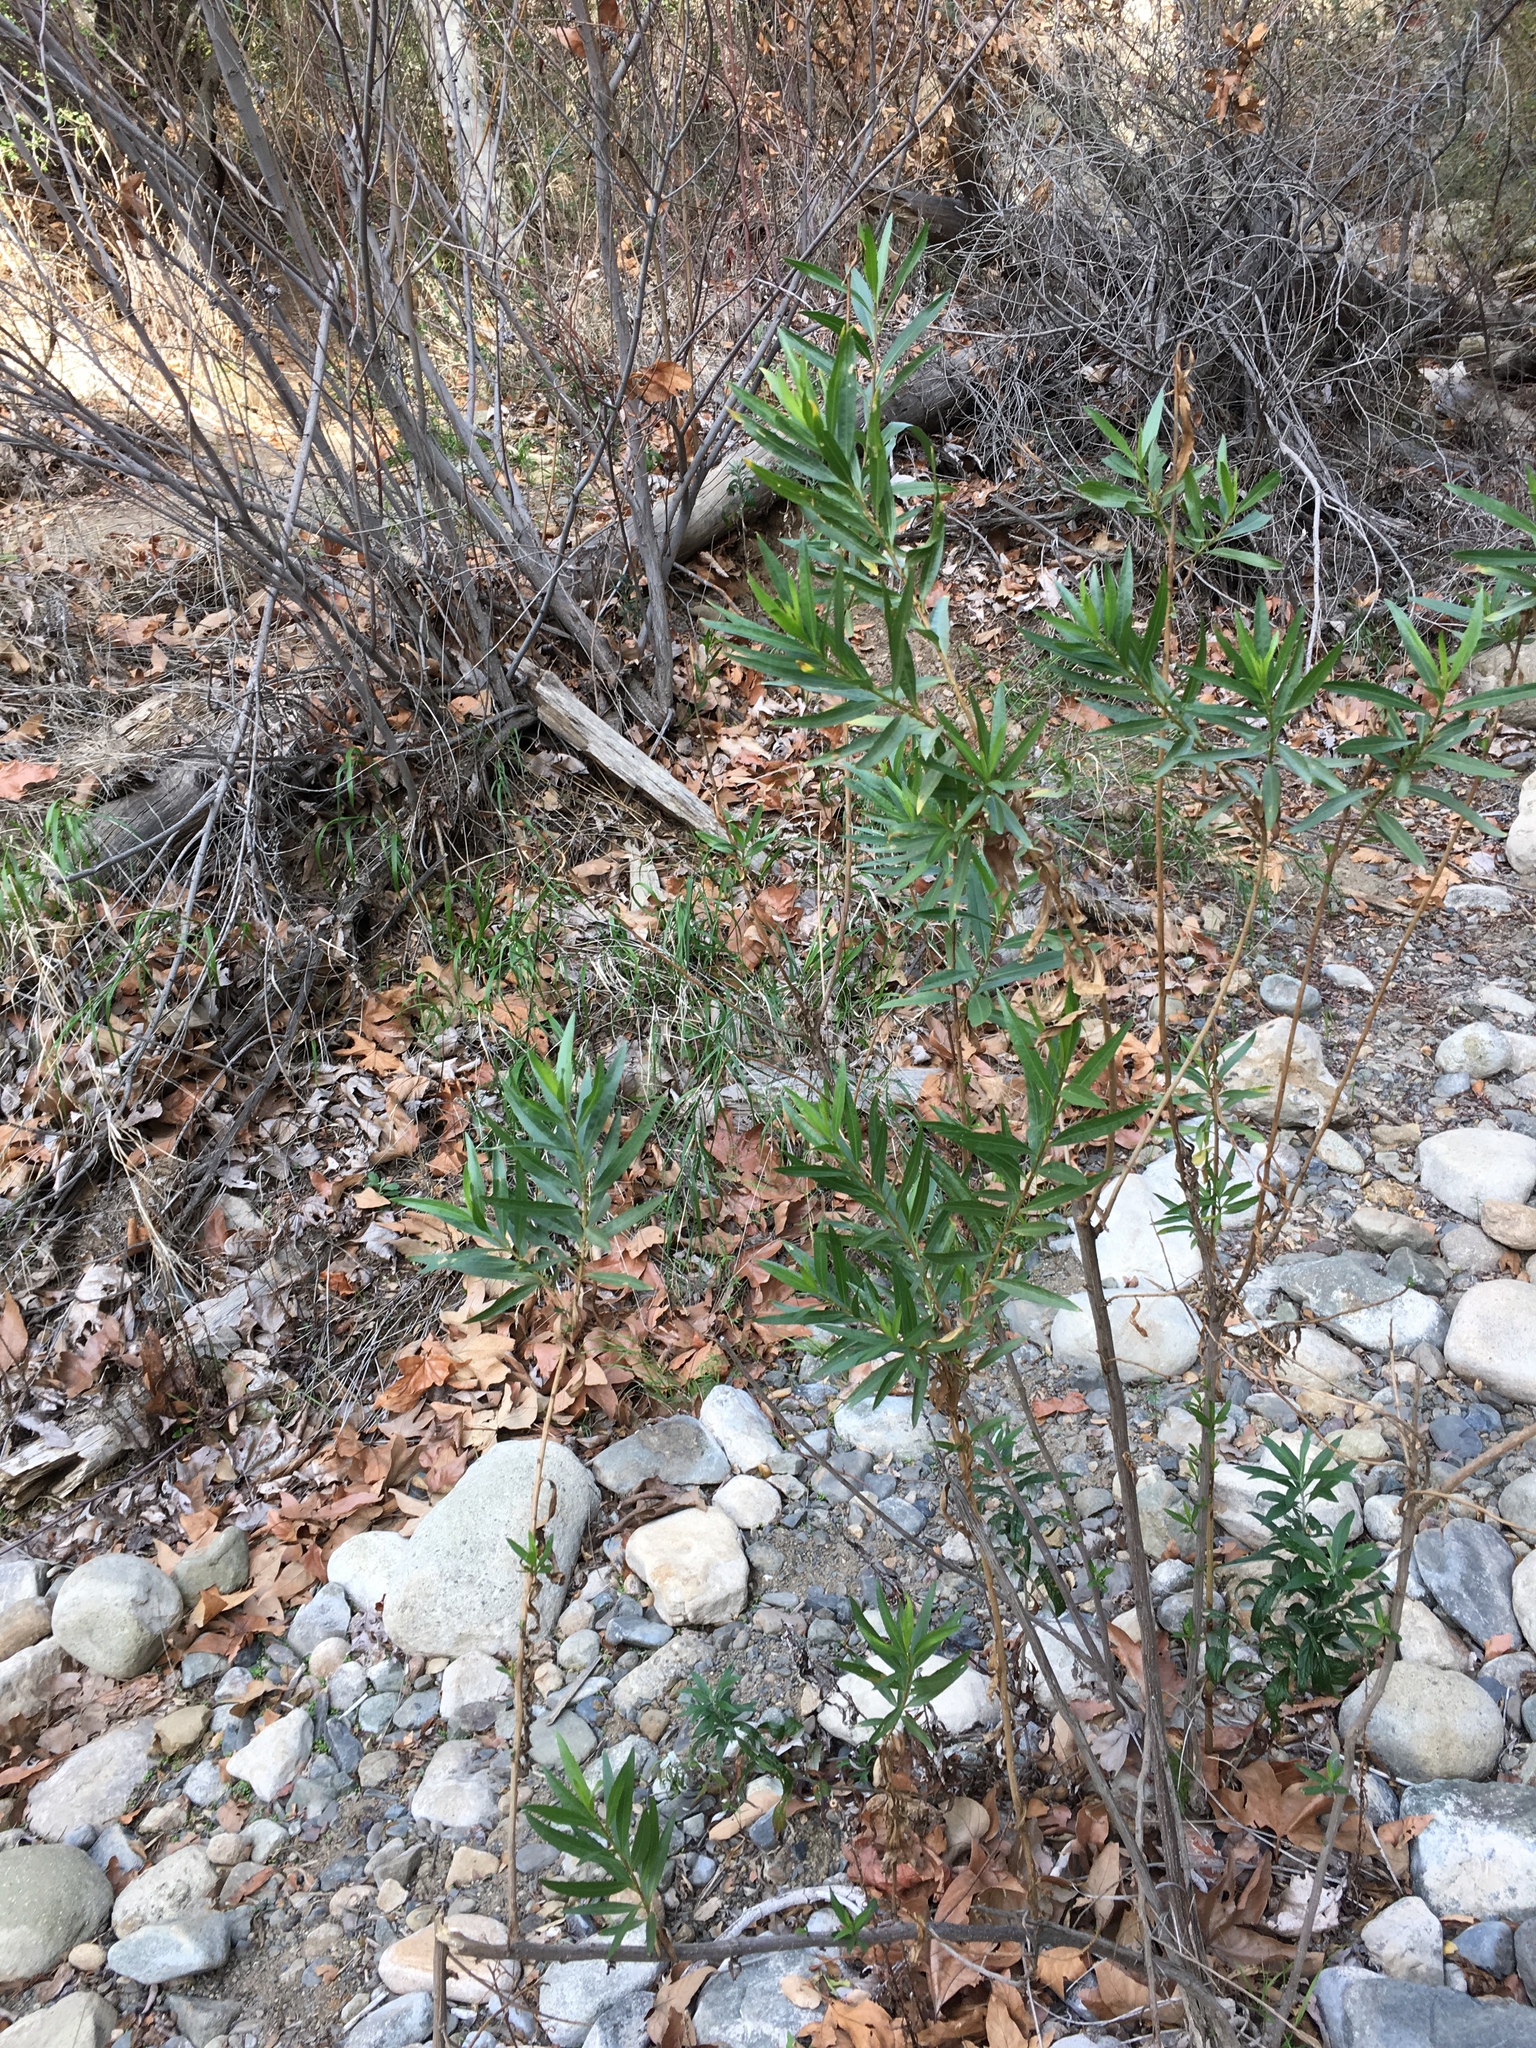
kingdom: Plantae
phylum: Tracheophyta
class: Magnoliopsida
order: Asterales
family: Asteraceae
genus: Baccharis
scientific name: Baccharis salicifolia
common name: Sticky baccharis
